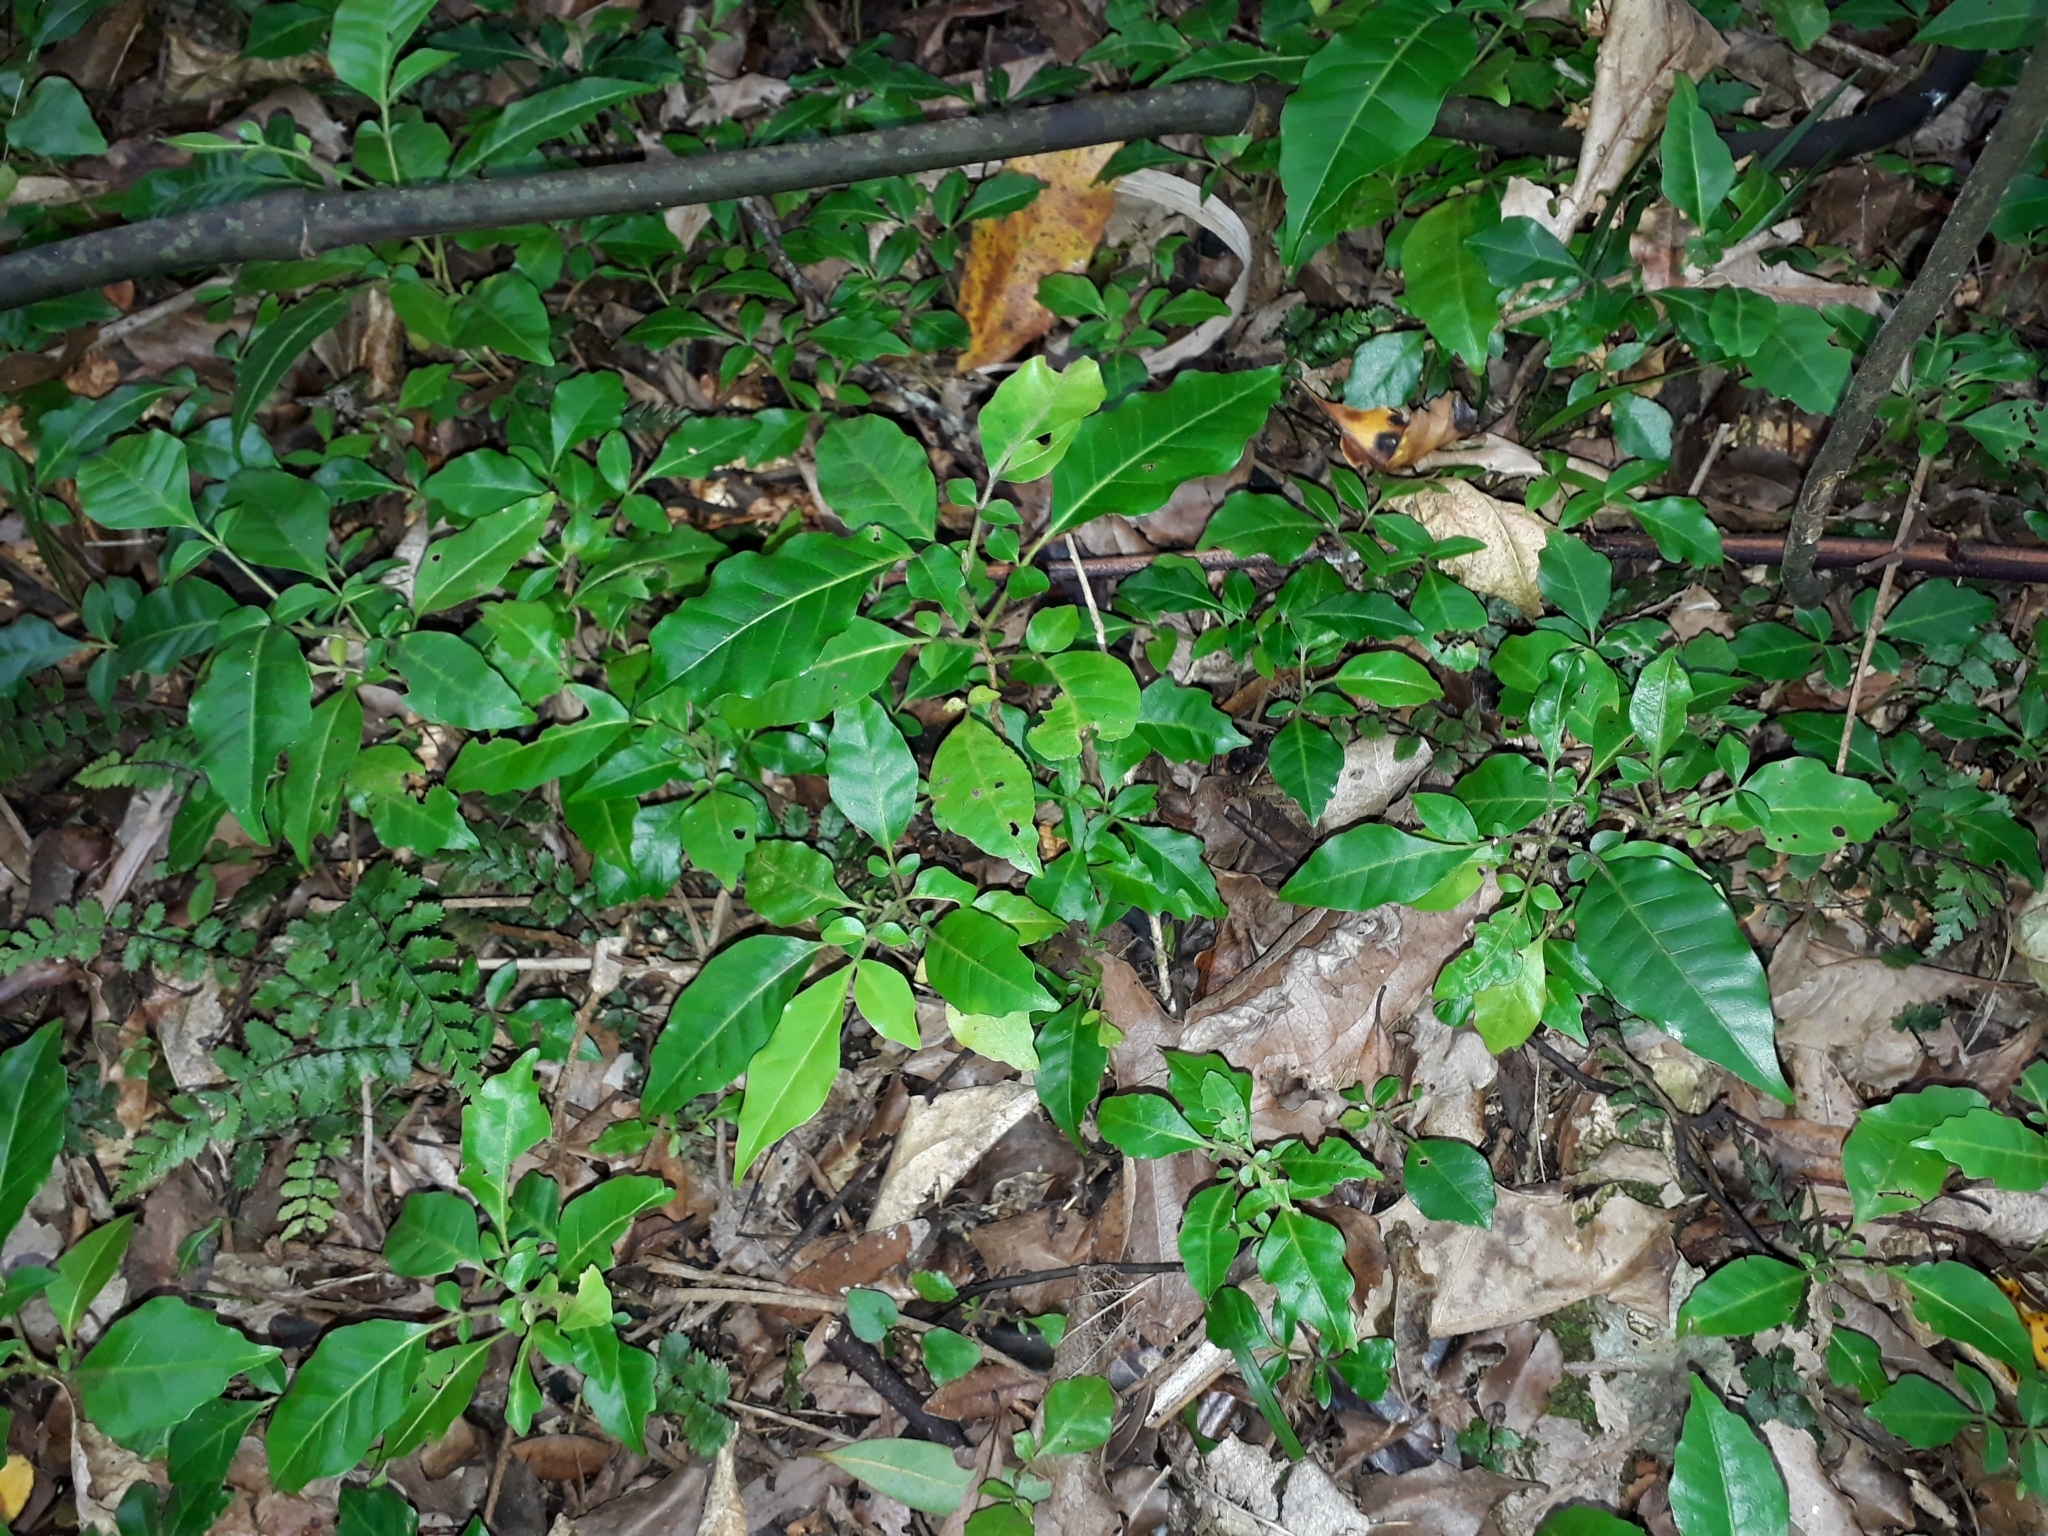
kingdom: Plantae
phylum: Tracheophyta
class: Magnoliopsida
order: Sapindales
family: Meliaceae
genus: Didymocheton
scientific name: Didymocheton spectabilis
